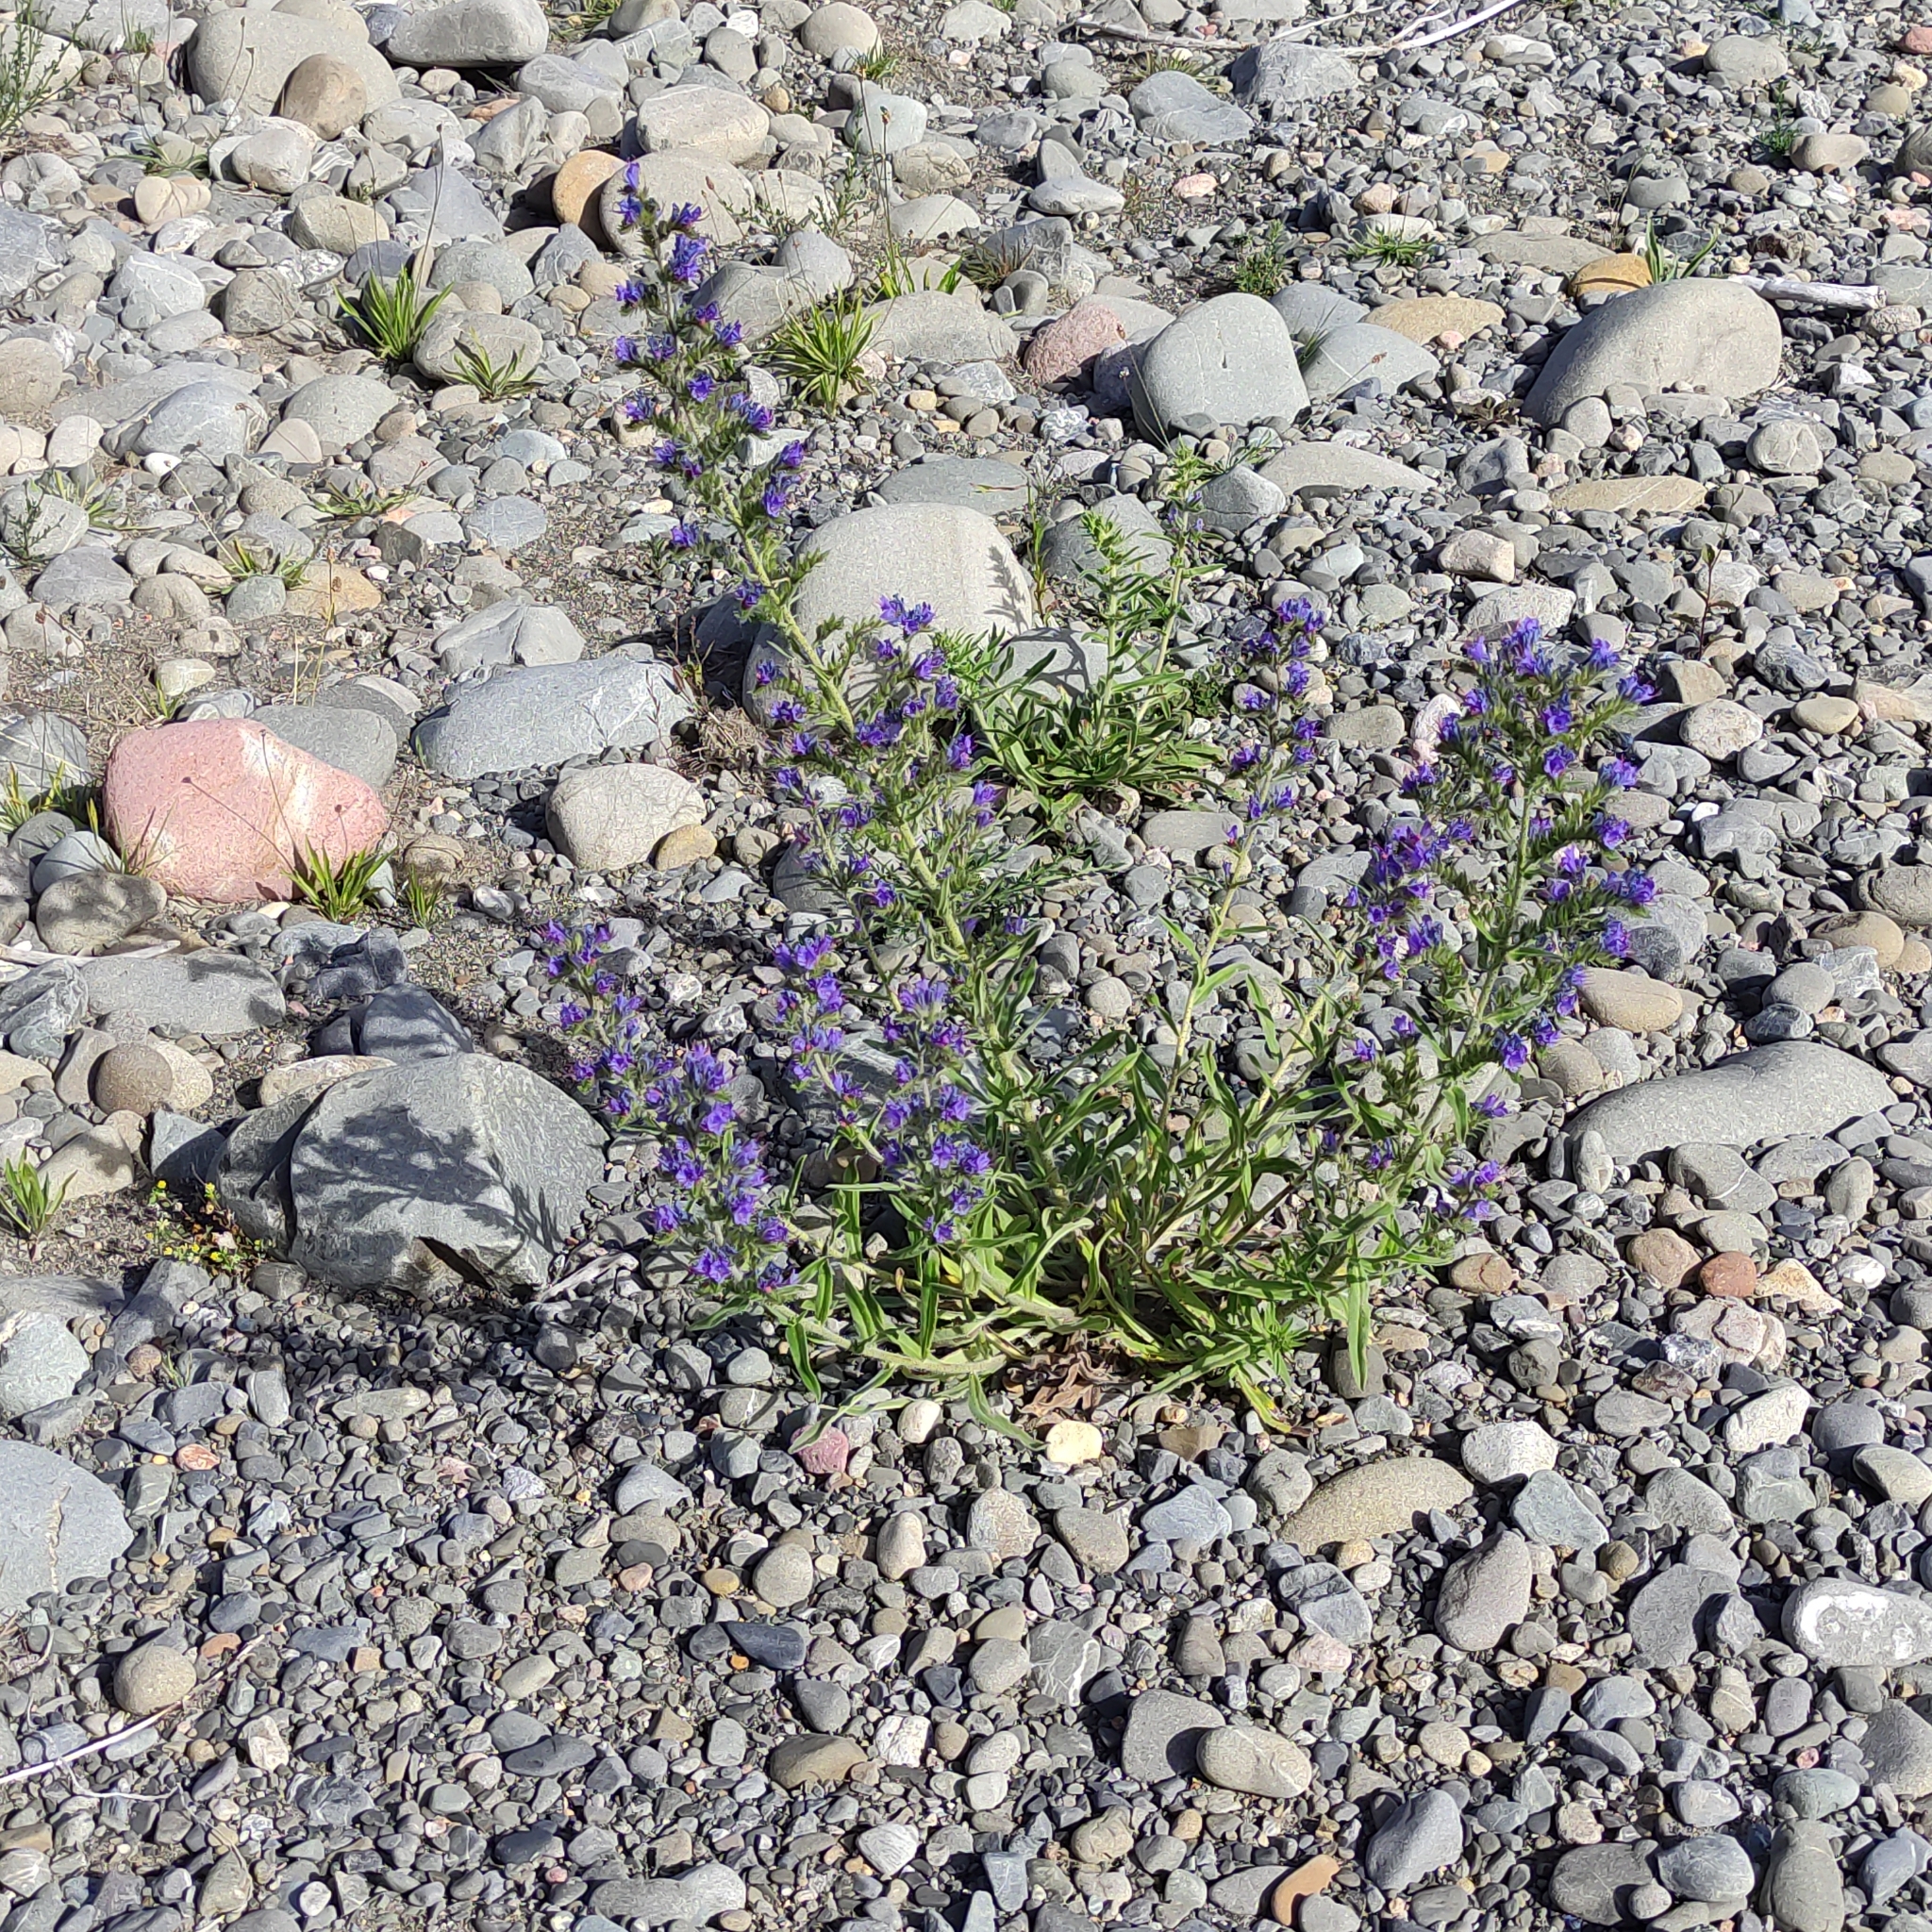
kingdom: Plantae
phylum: Tracheophyta
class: Magnoliopsida
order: Boraginales
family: Boraginaceae
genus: Echium
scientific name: Echium vulgare
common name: Common viper's bugloss
